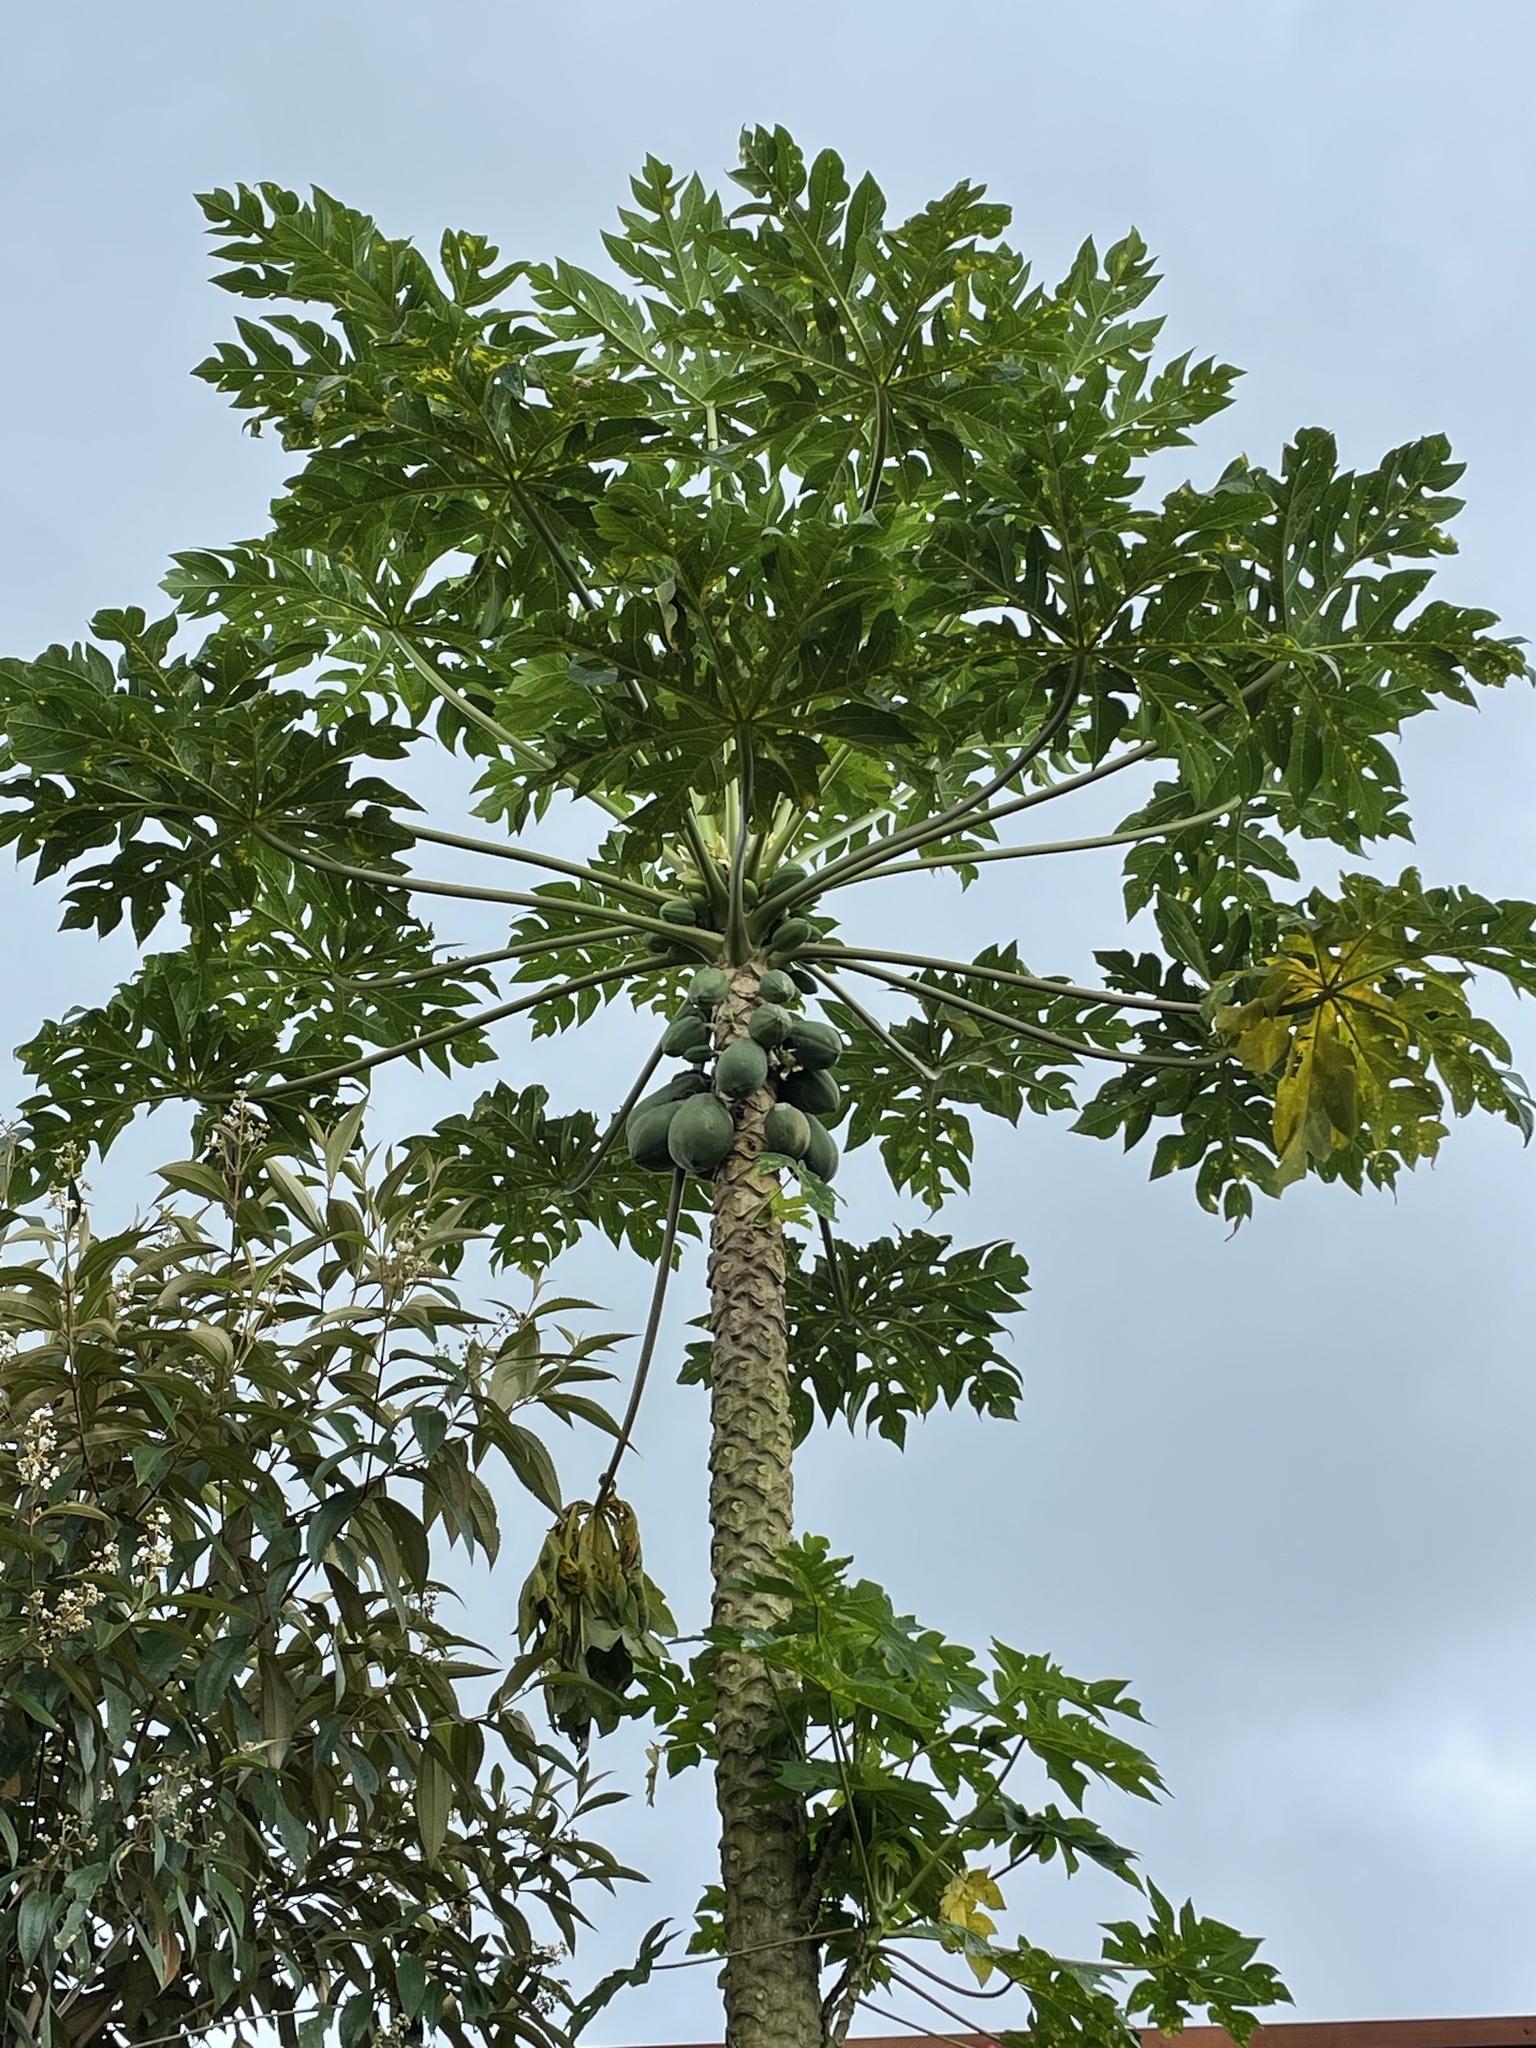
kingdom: Plantae
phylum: Tracheophyta
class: Magnoliopsida
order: Brassicales
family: Caricaceae
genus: Carica
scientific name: Carica papaya
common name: Papaya
